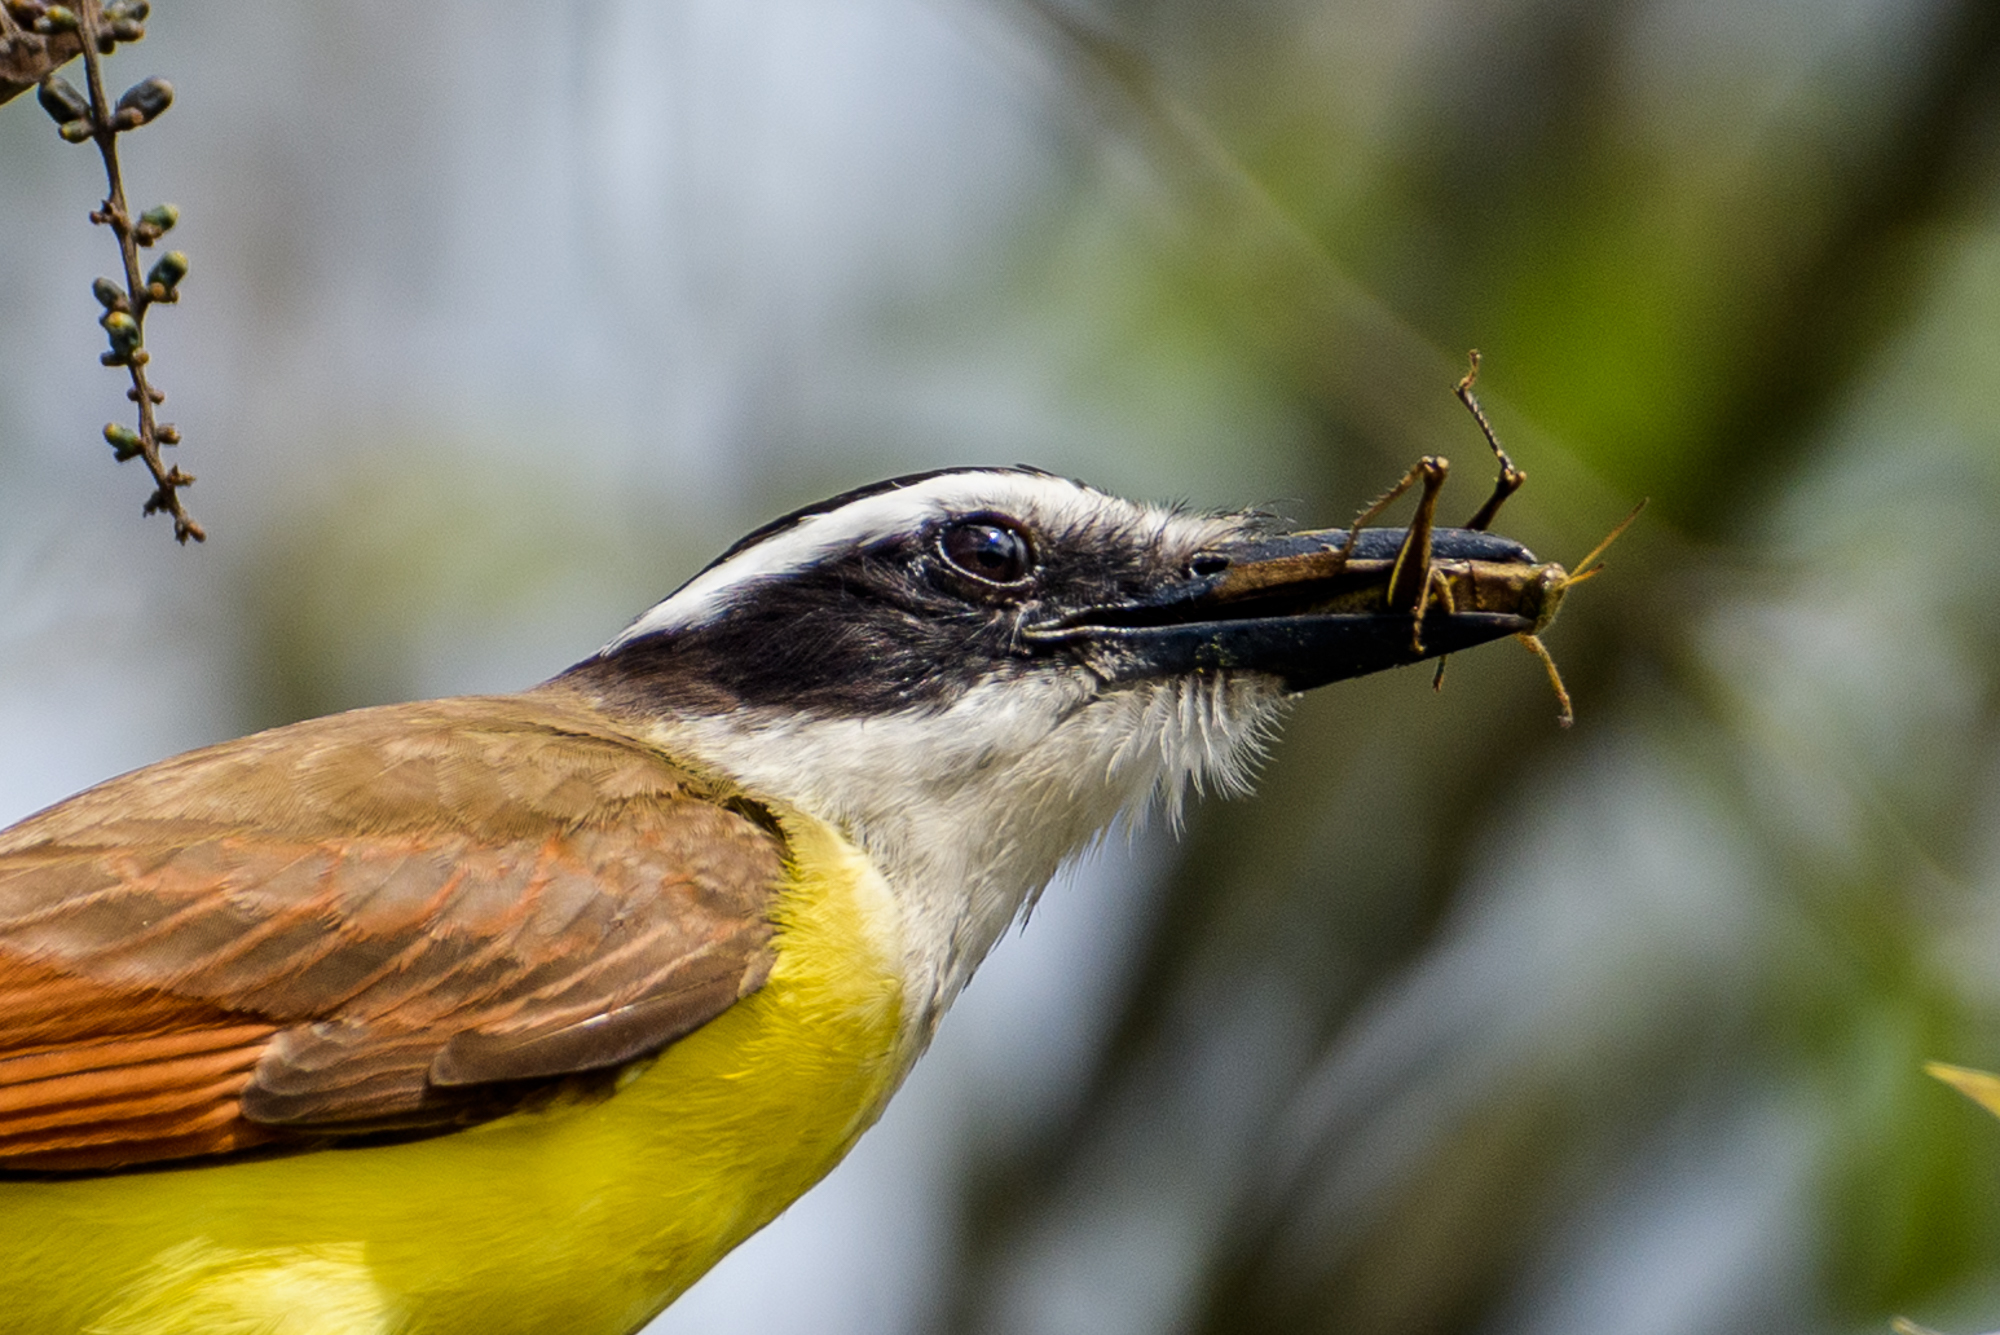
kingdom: Animalia
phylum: Chordata
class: Aves
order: Passeriformes
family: Tyrannidae
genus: Pitangus
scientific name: Pitangus sulphuratus
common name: Great kiskadee
